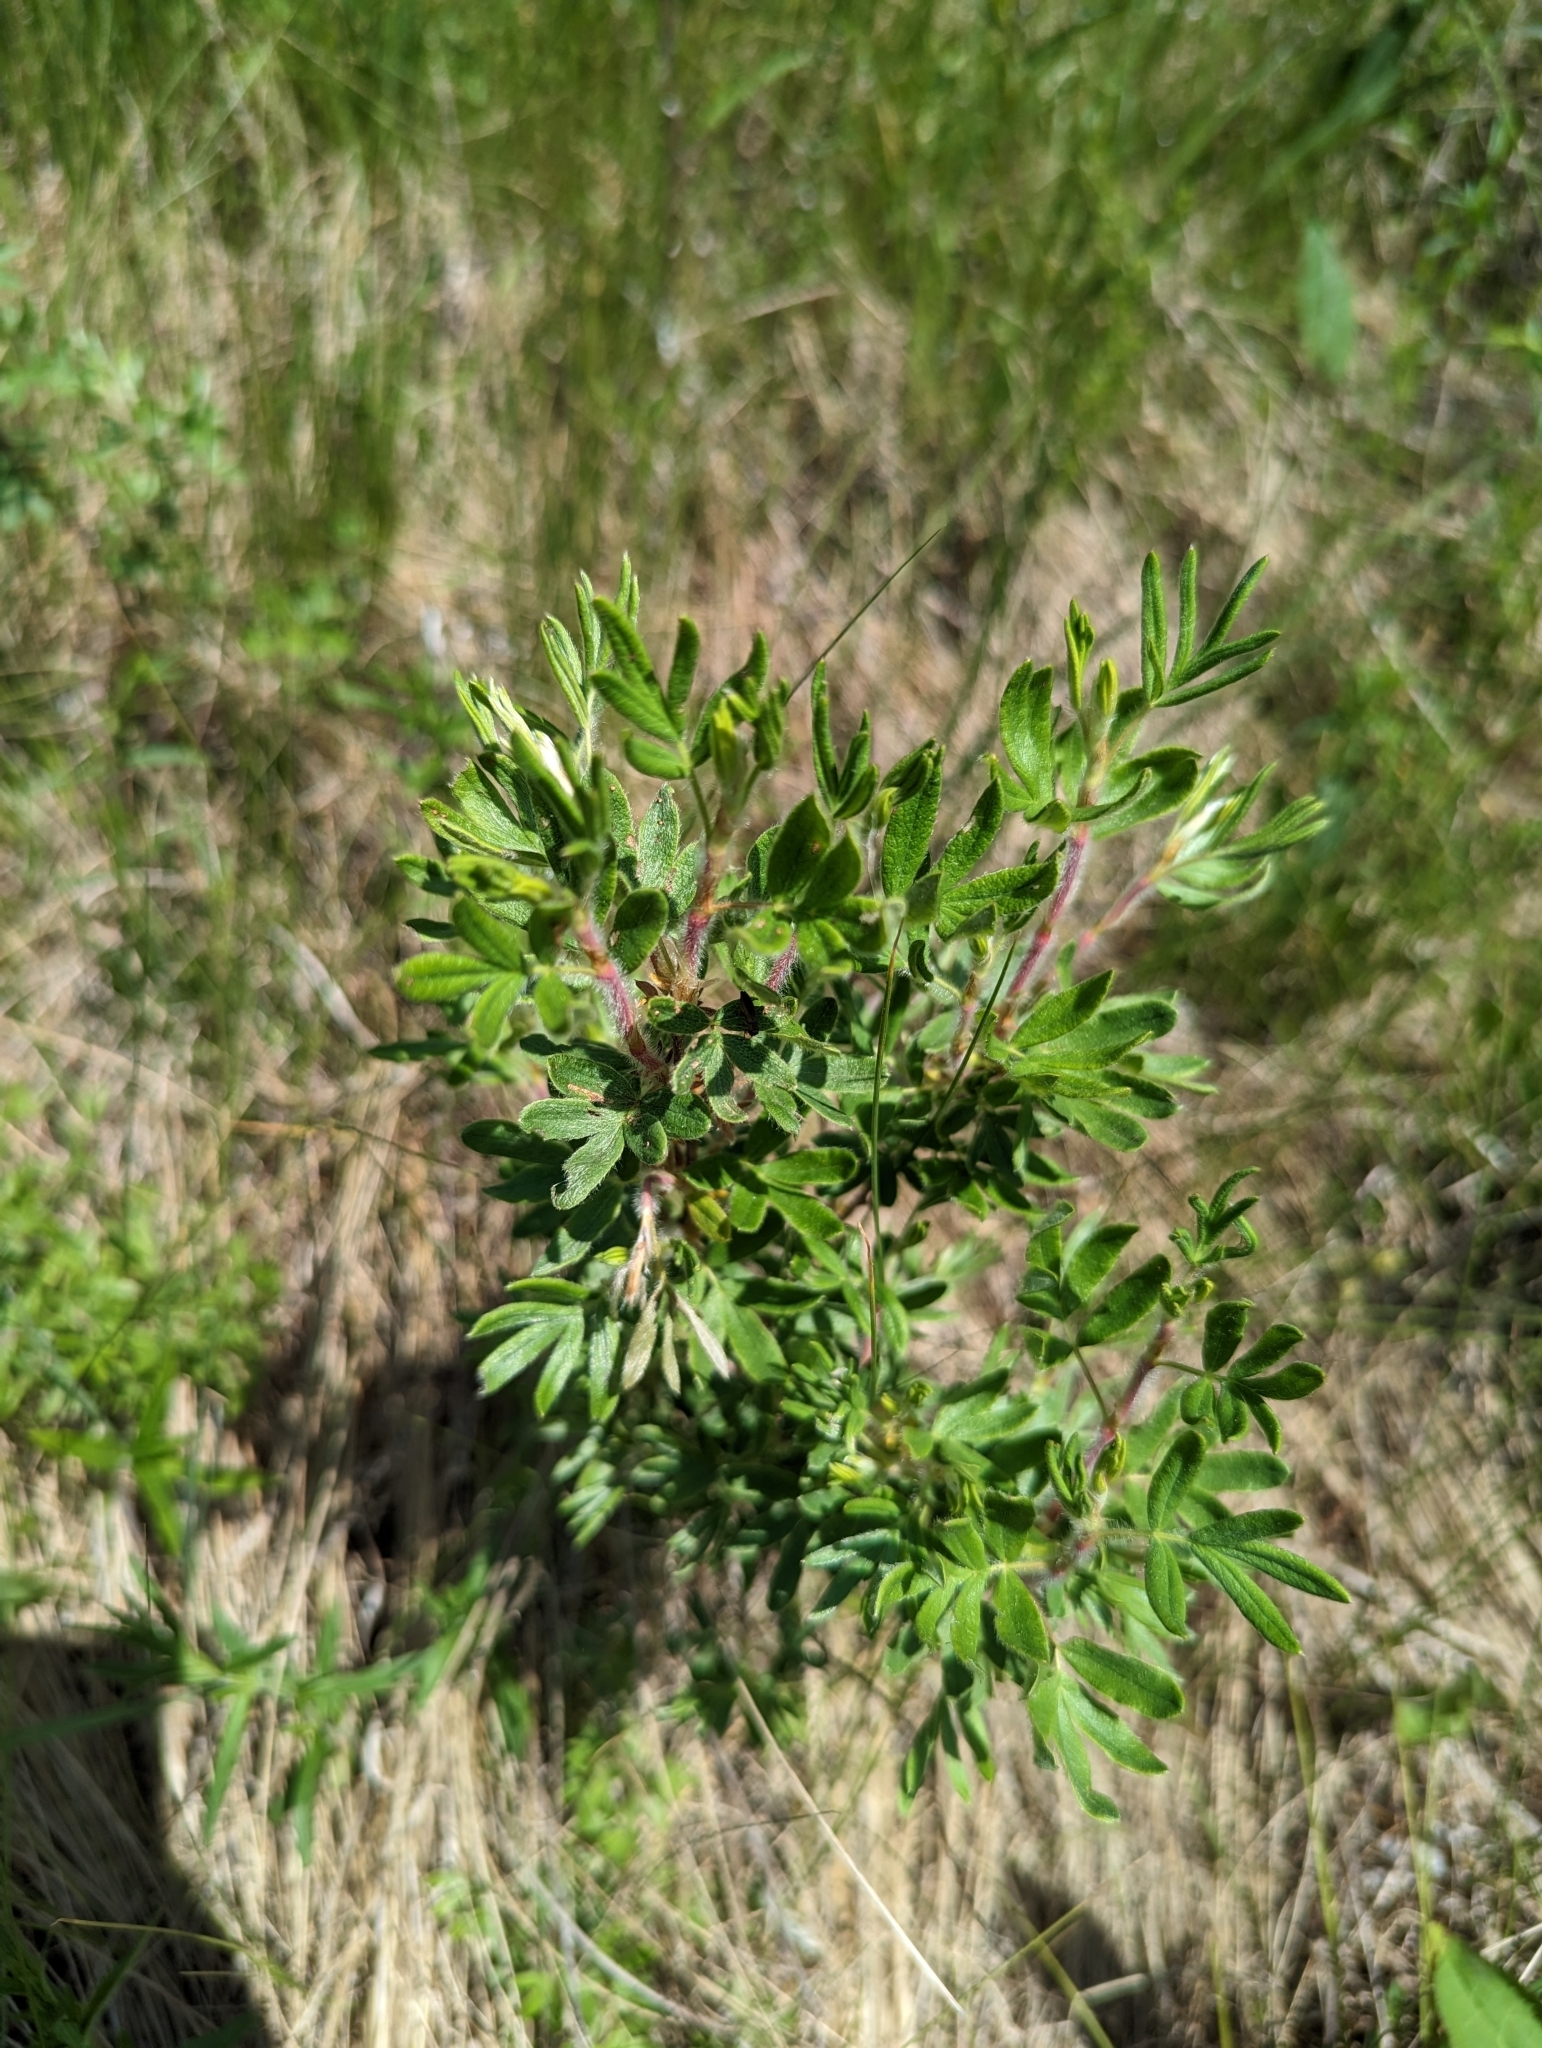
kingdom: Plantae
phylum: Tracheophyta
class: Magnoliopsida
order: Rosales
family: Rosaceae
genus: Dasiphora
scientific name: Dasiphora fruticosa
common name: Shrubby cinquefoil
